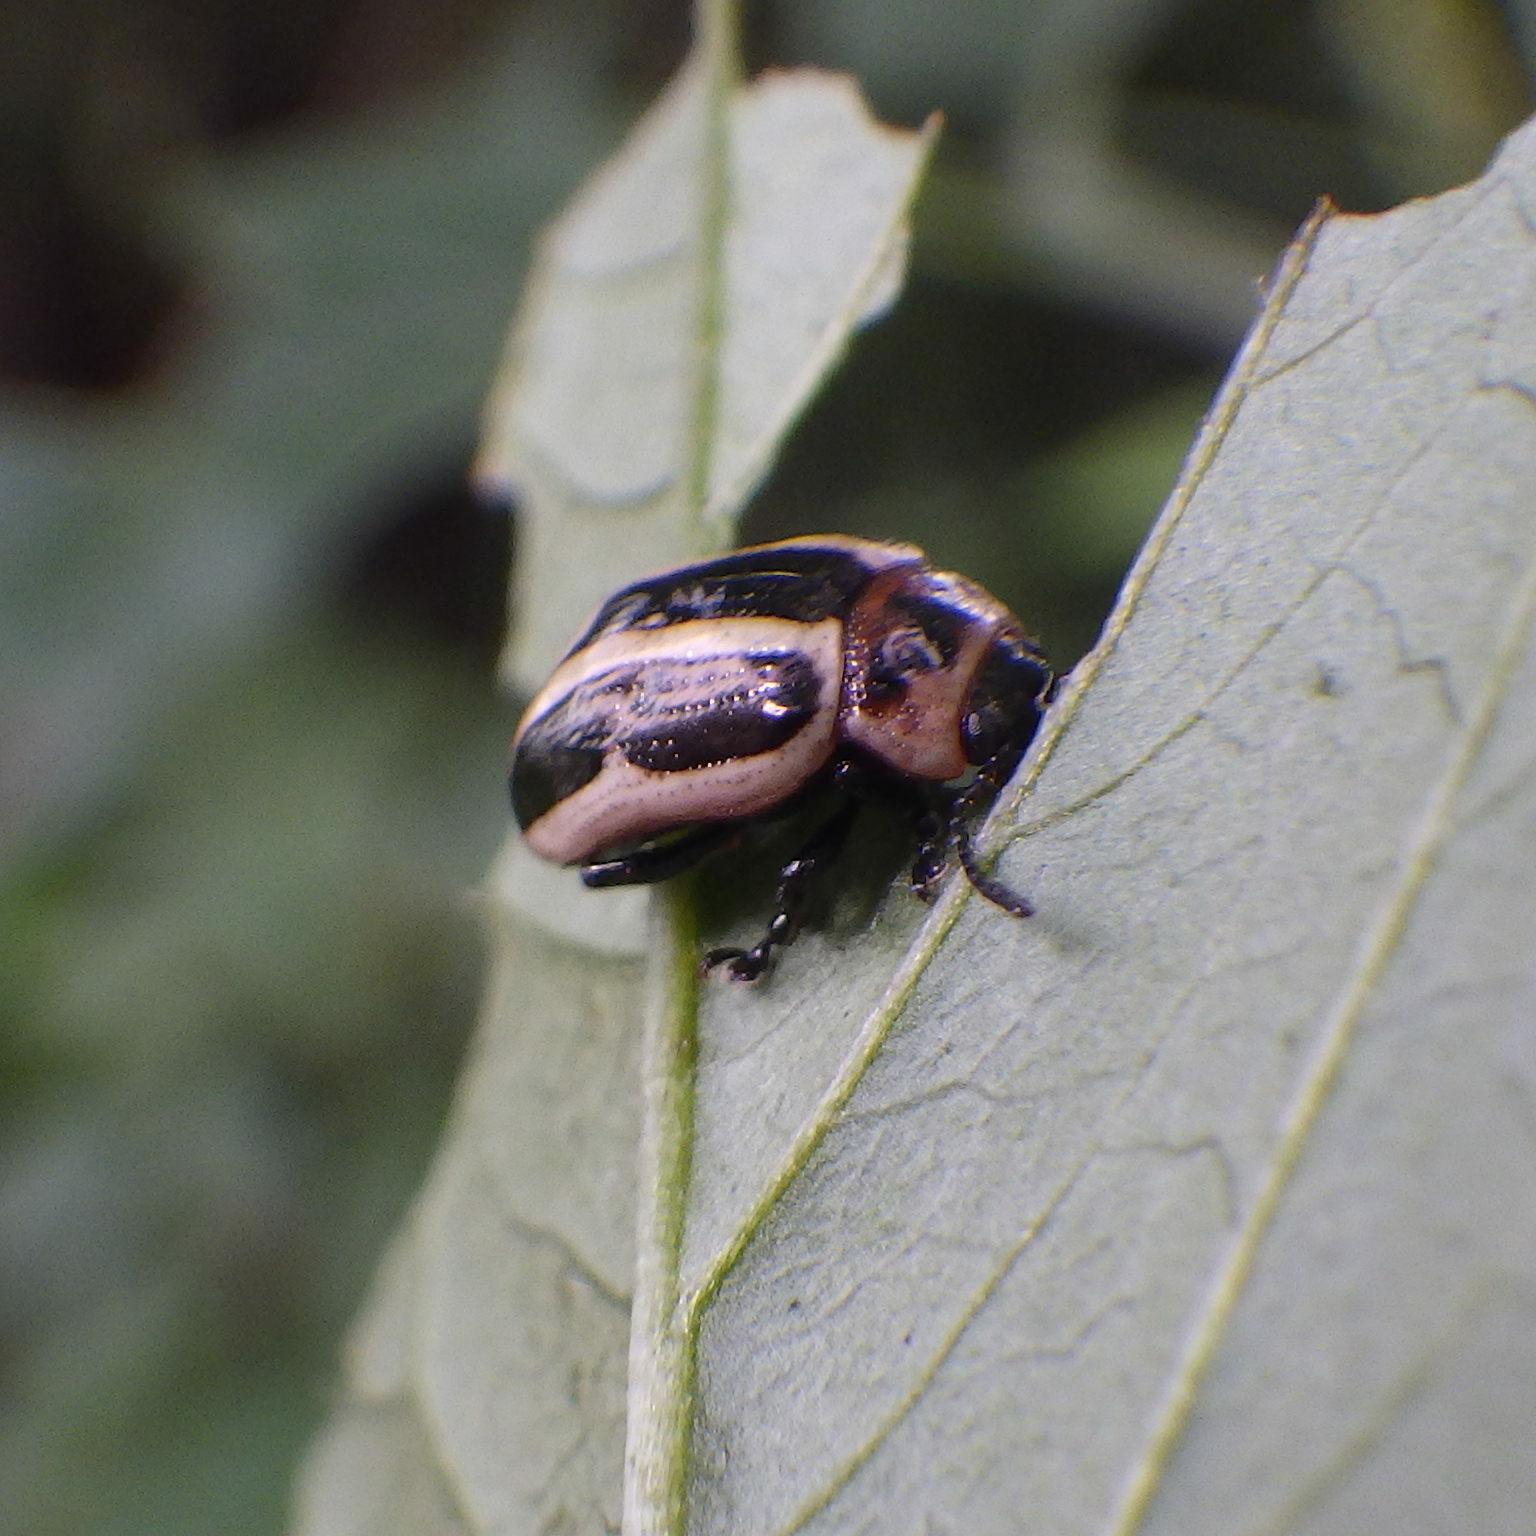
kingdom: Animalia
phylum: Arthropoda
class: Insecta
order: Coleoptera
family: Chrysomelidae
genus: Calligrapha
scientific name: Calligrapha californica
